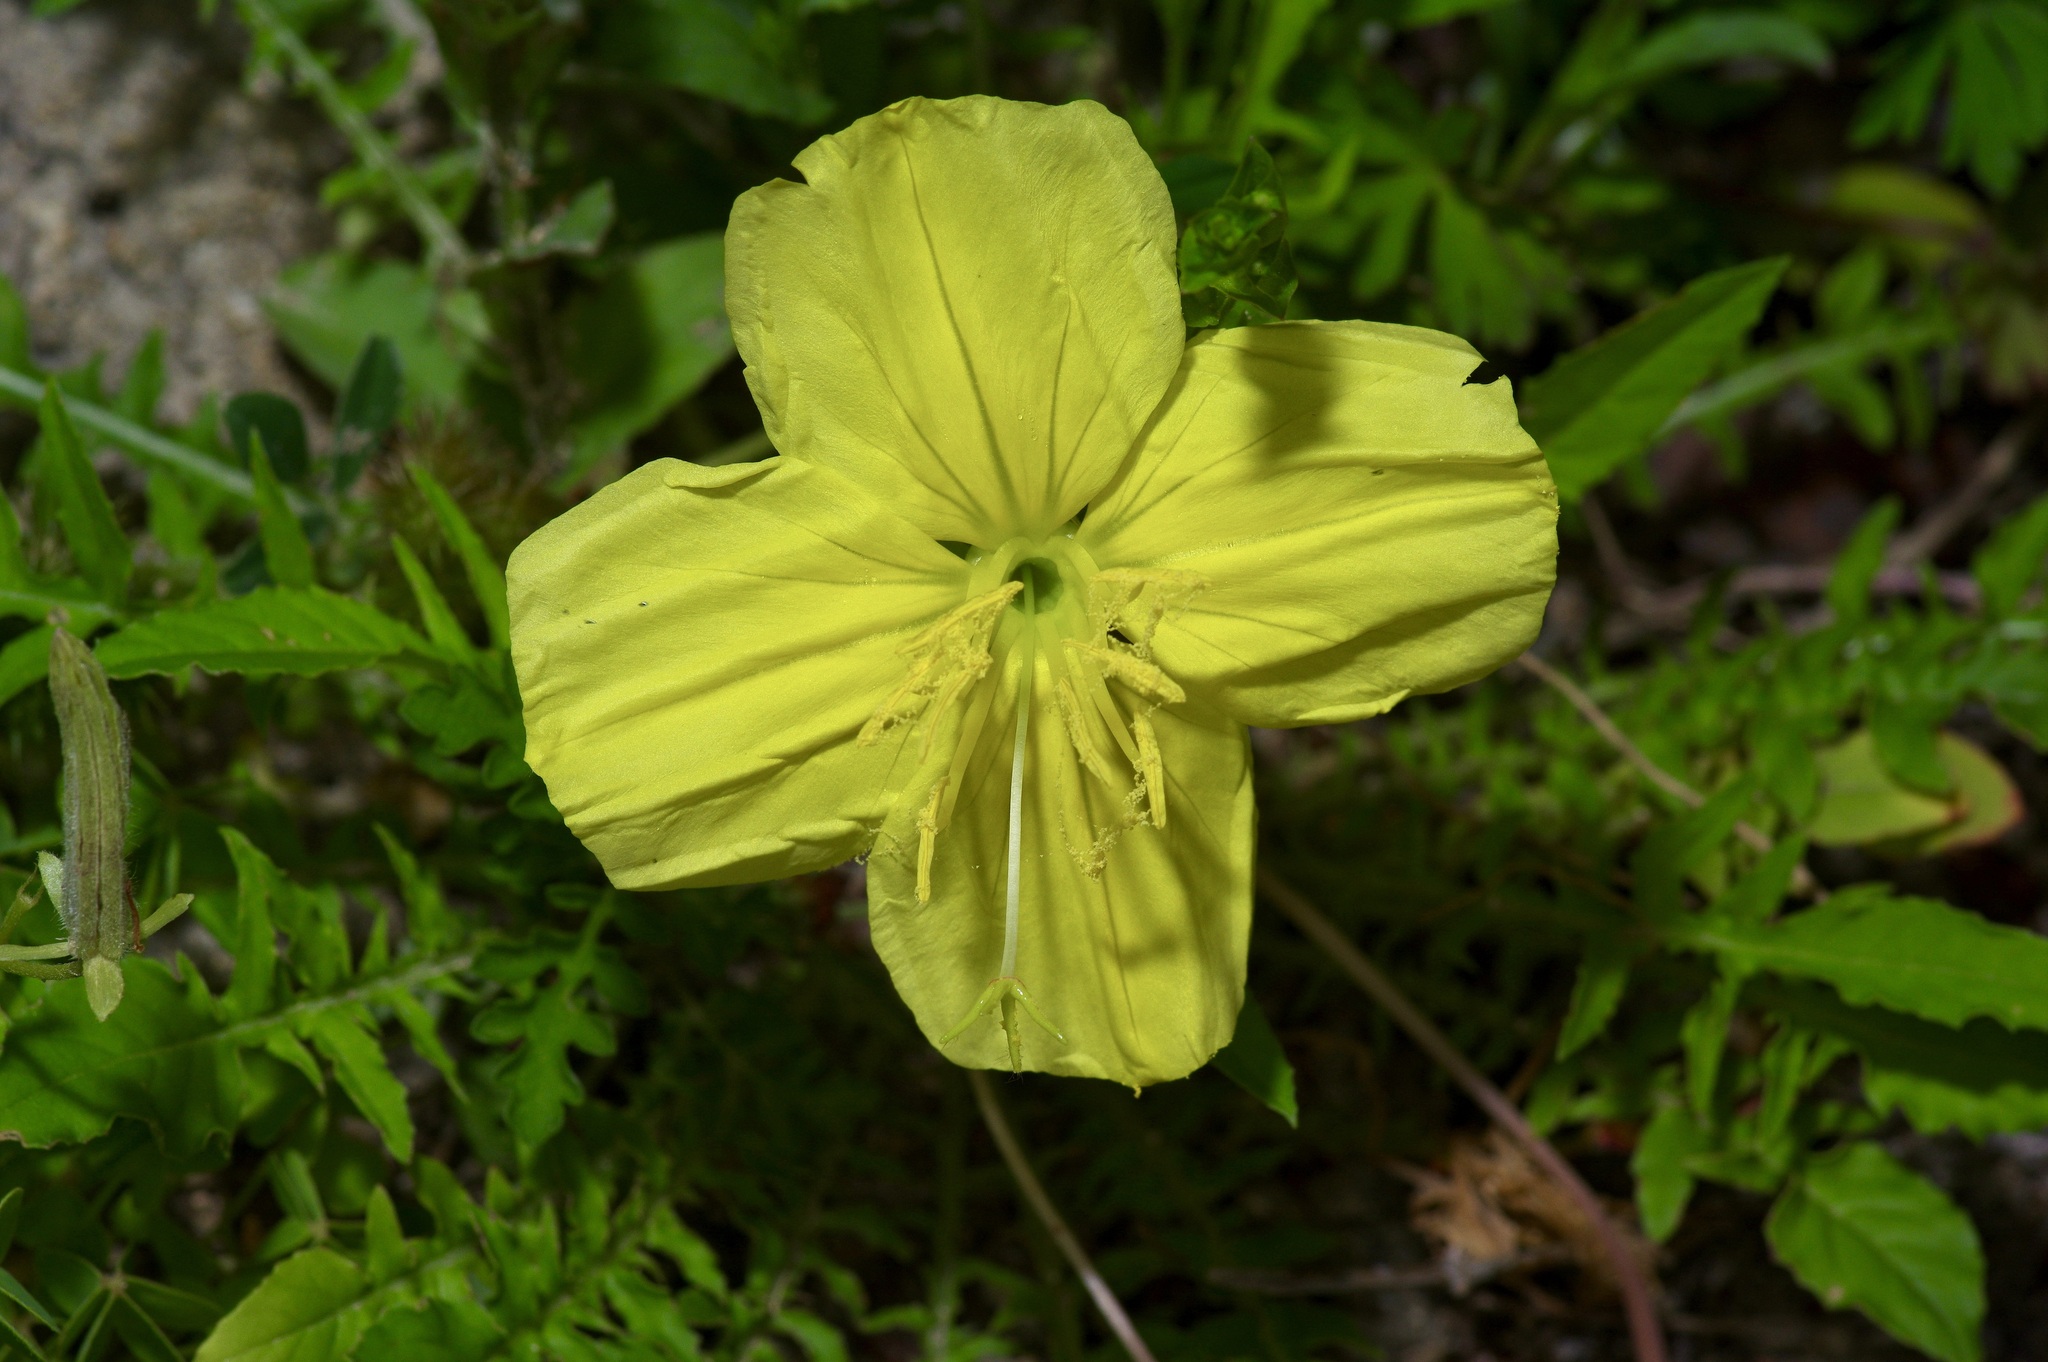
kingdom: Plantae
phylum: Tracheophyta
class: Magnoliopsida
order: Myrtales
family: Onagraceae
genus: Oenothera
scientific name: Oenothera triloba
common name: Sessile evening-primrose
